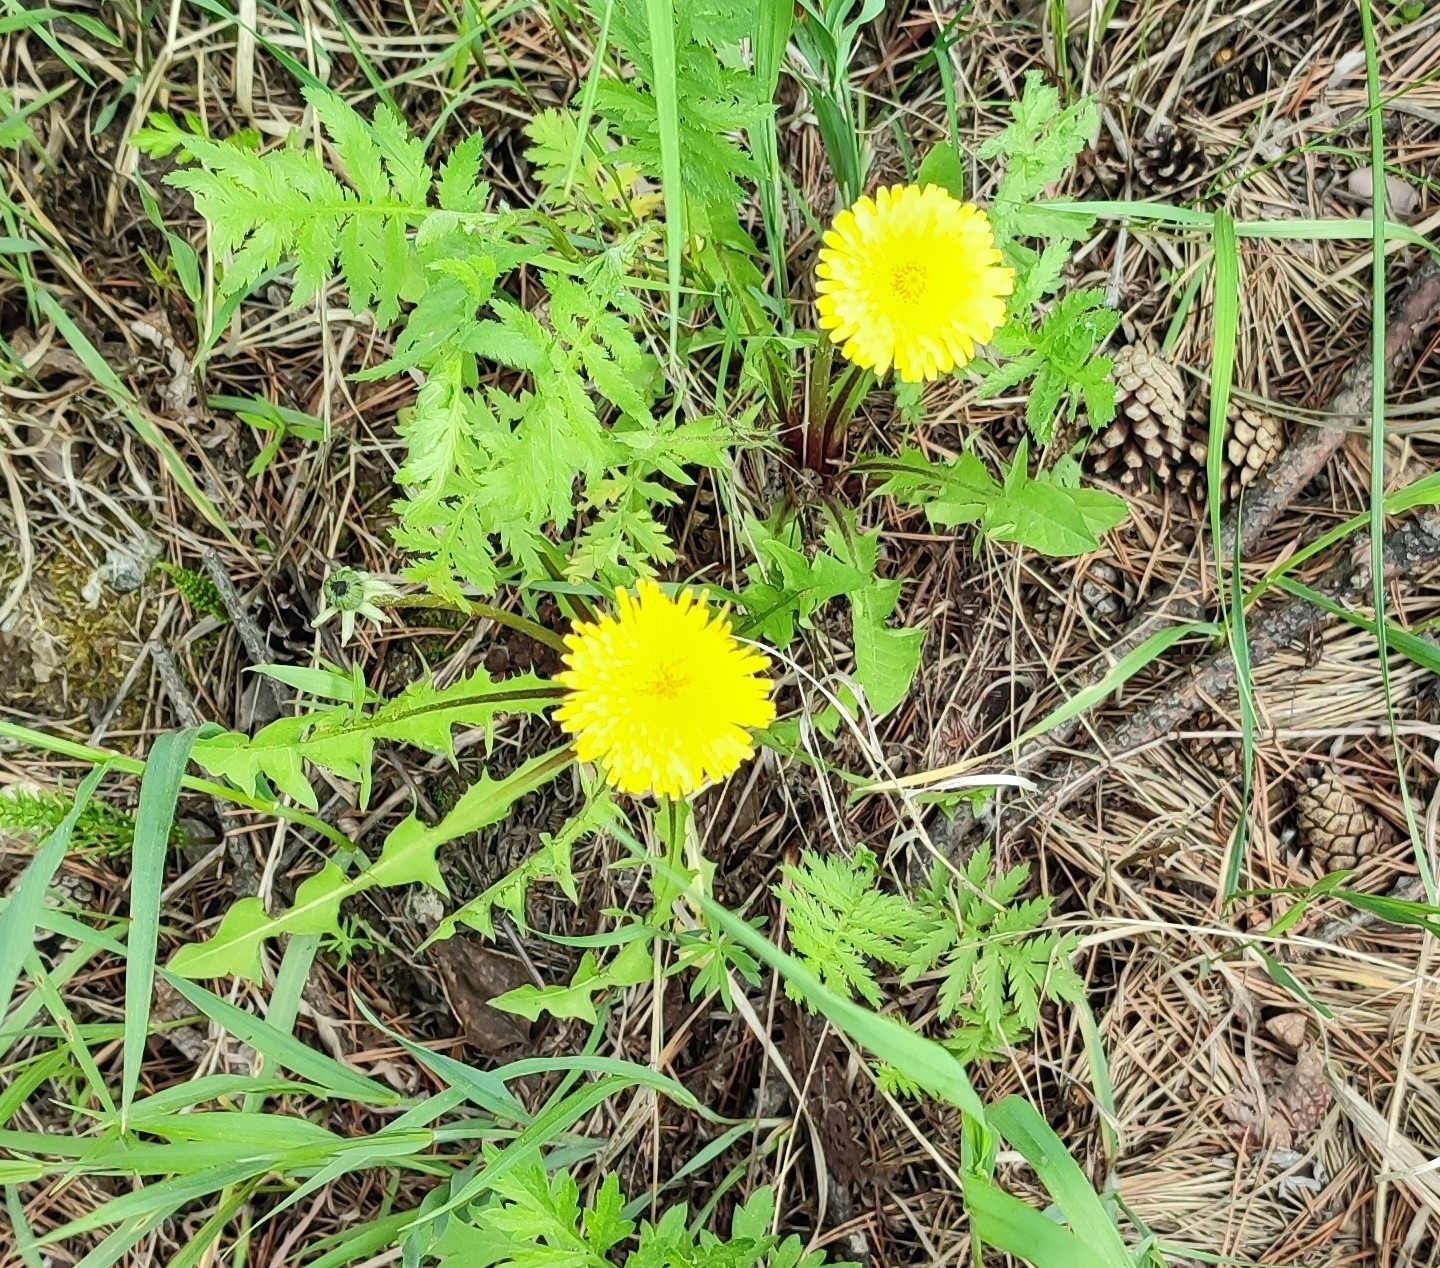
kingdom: Plantae
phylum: Tracheophyta
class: Magnoliopsida
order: Asterales
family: Asteraceae
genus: Taraxacum
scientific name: Taraxacum officinale
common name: Common dandelion
